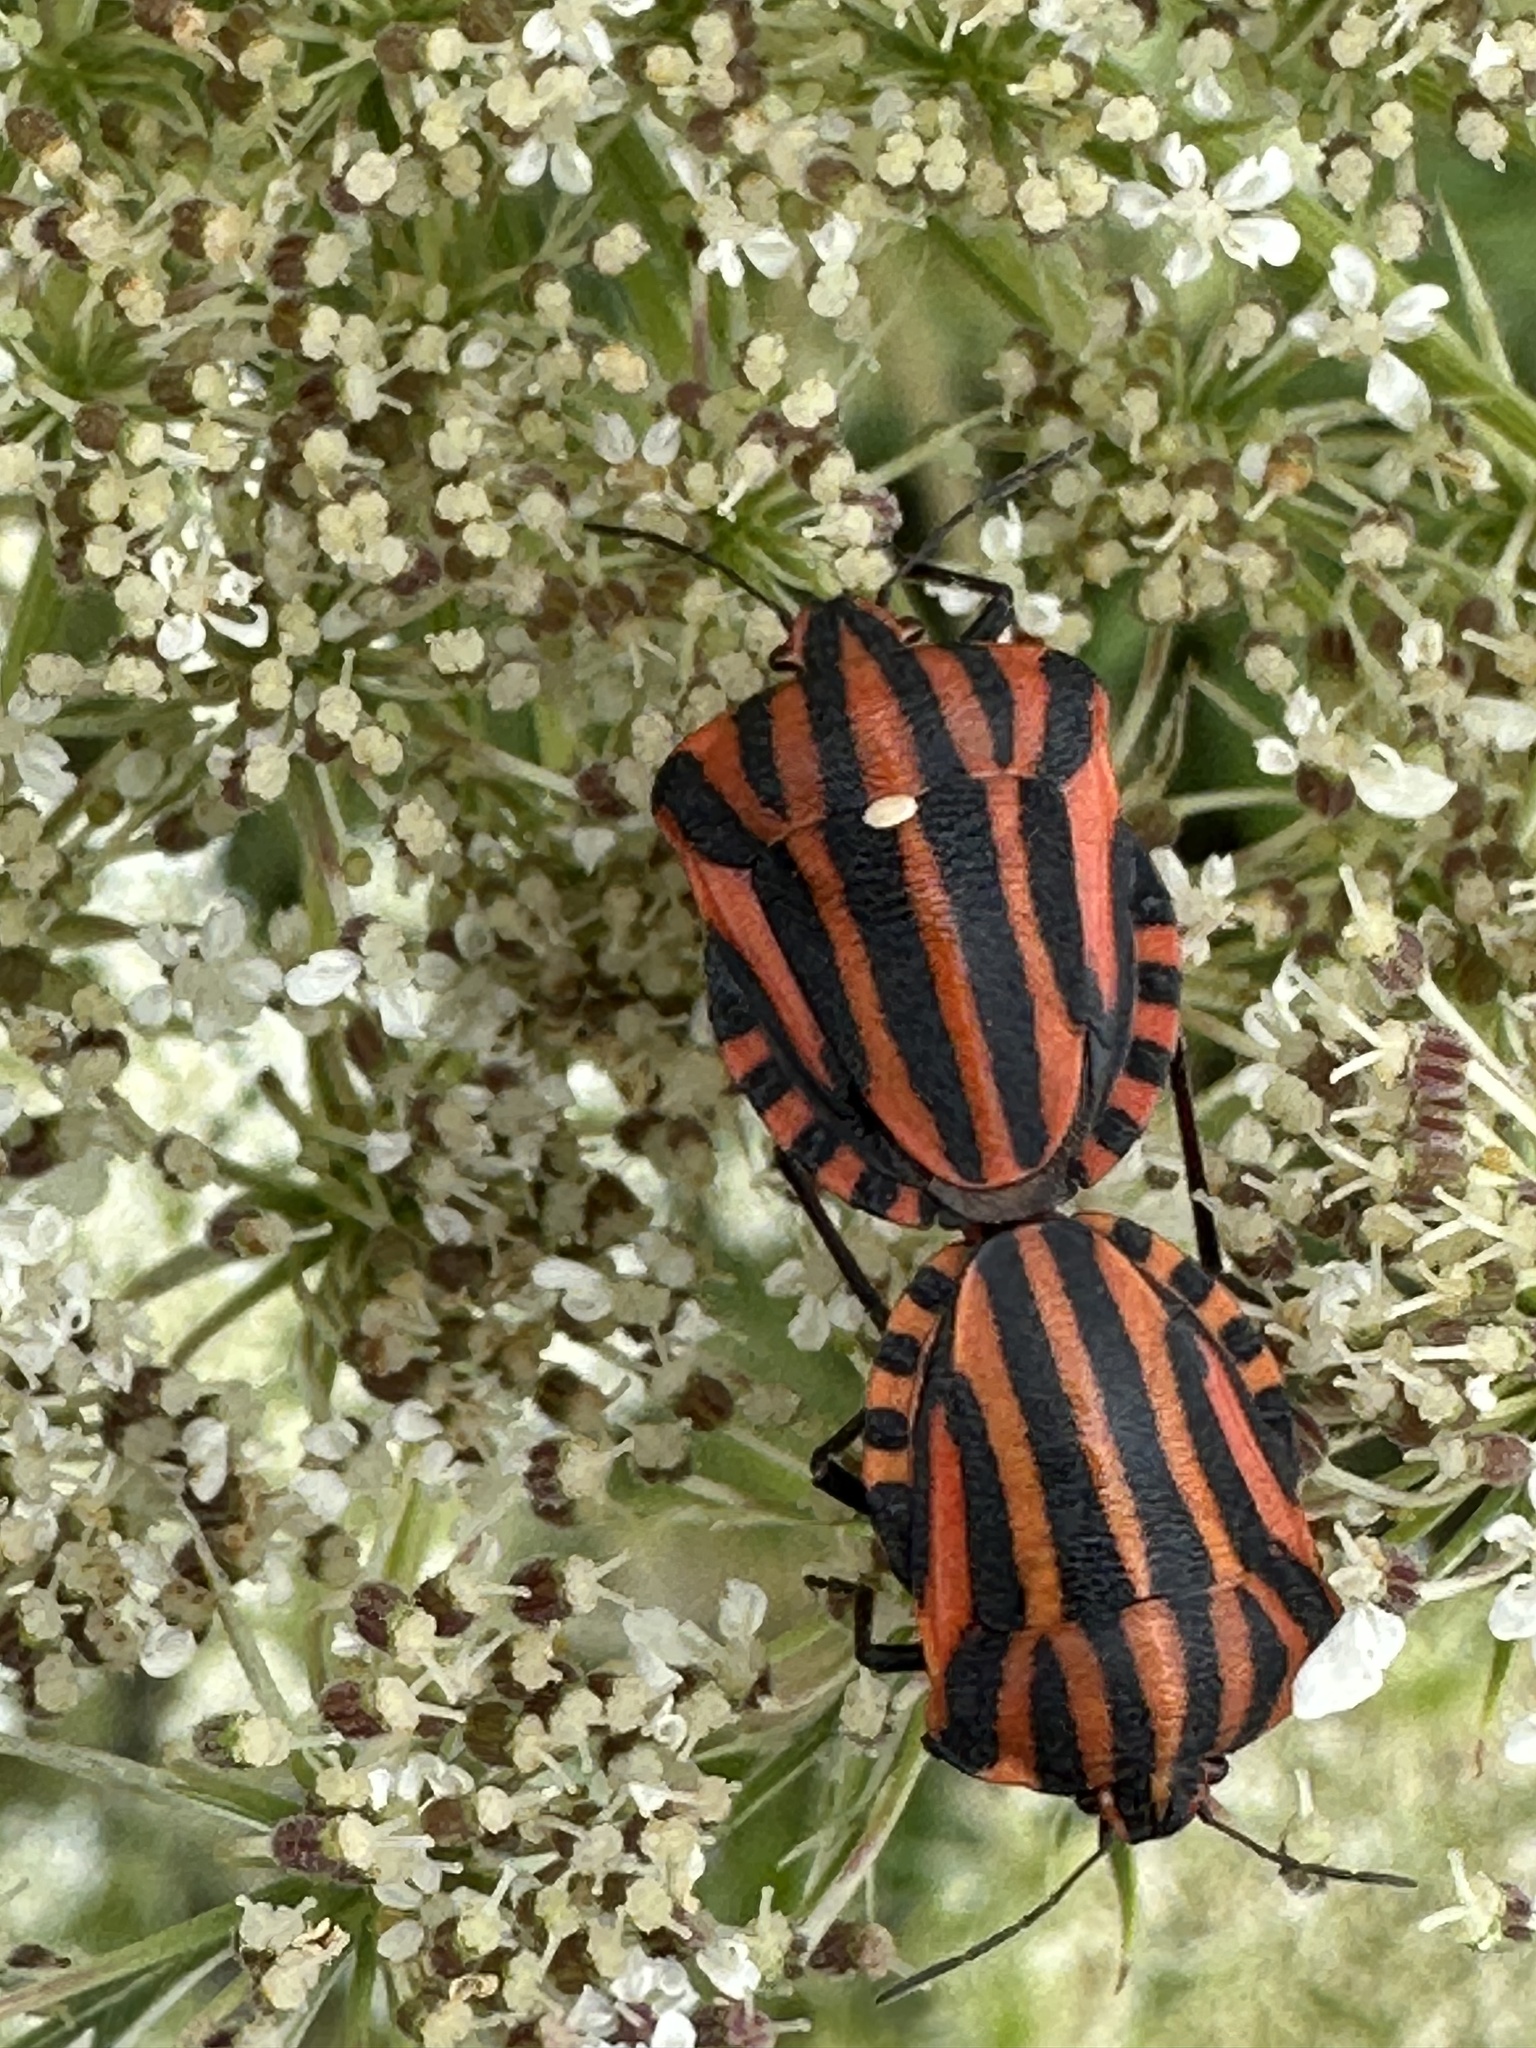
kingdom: Animalia
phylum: Arthropoda
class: Insecta
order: Hemiptera
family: Pentatomidae
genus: Graphosoma
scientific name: Graphosoma italicum
